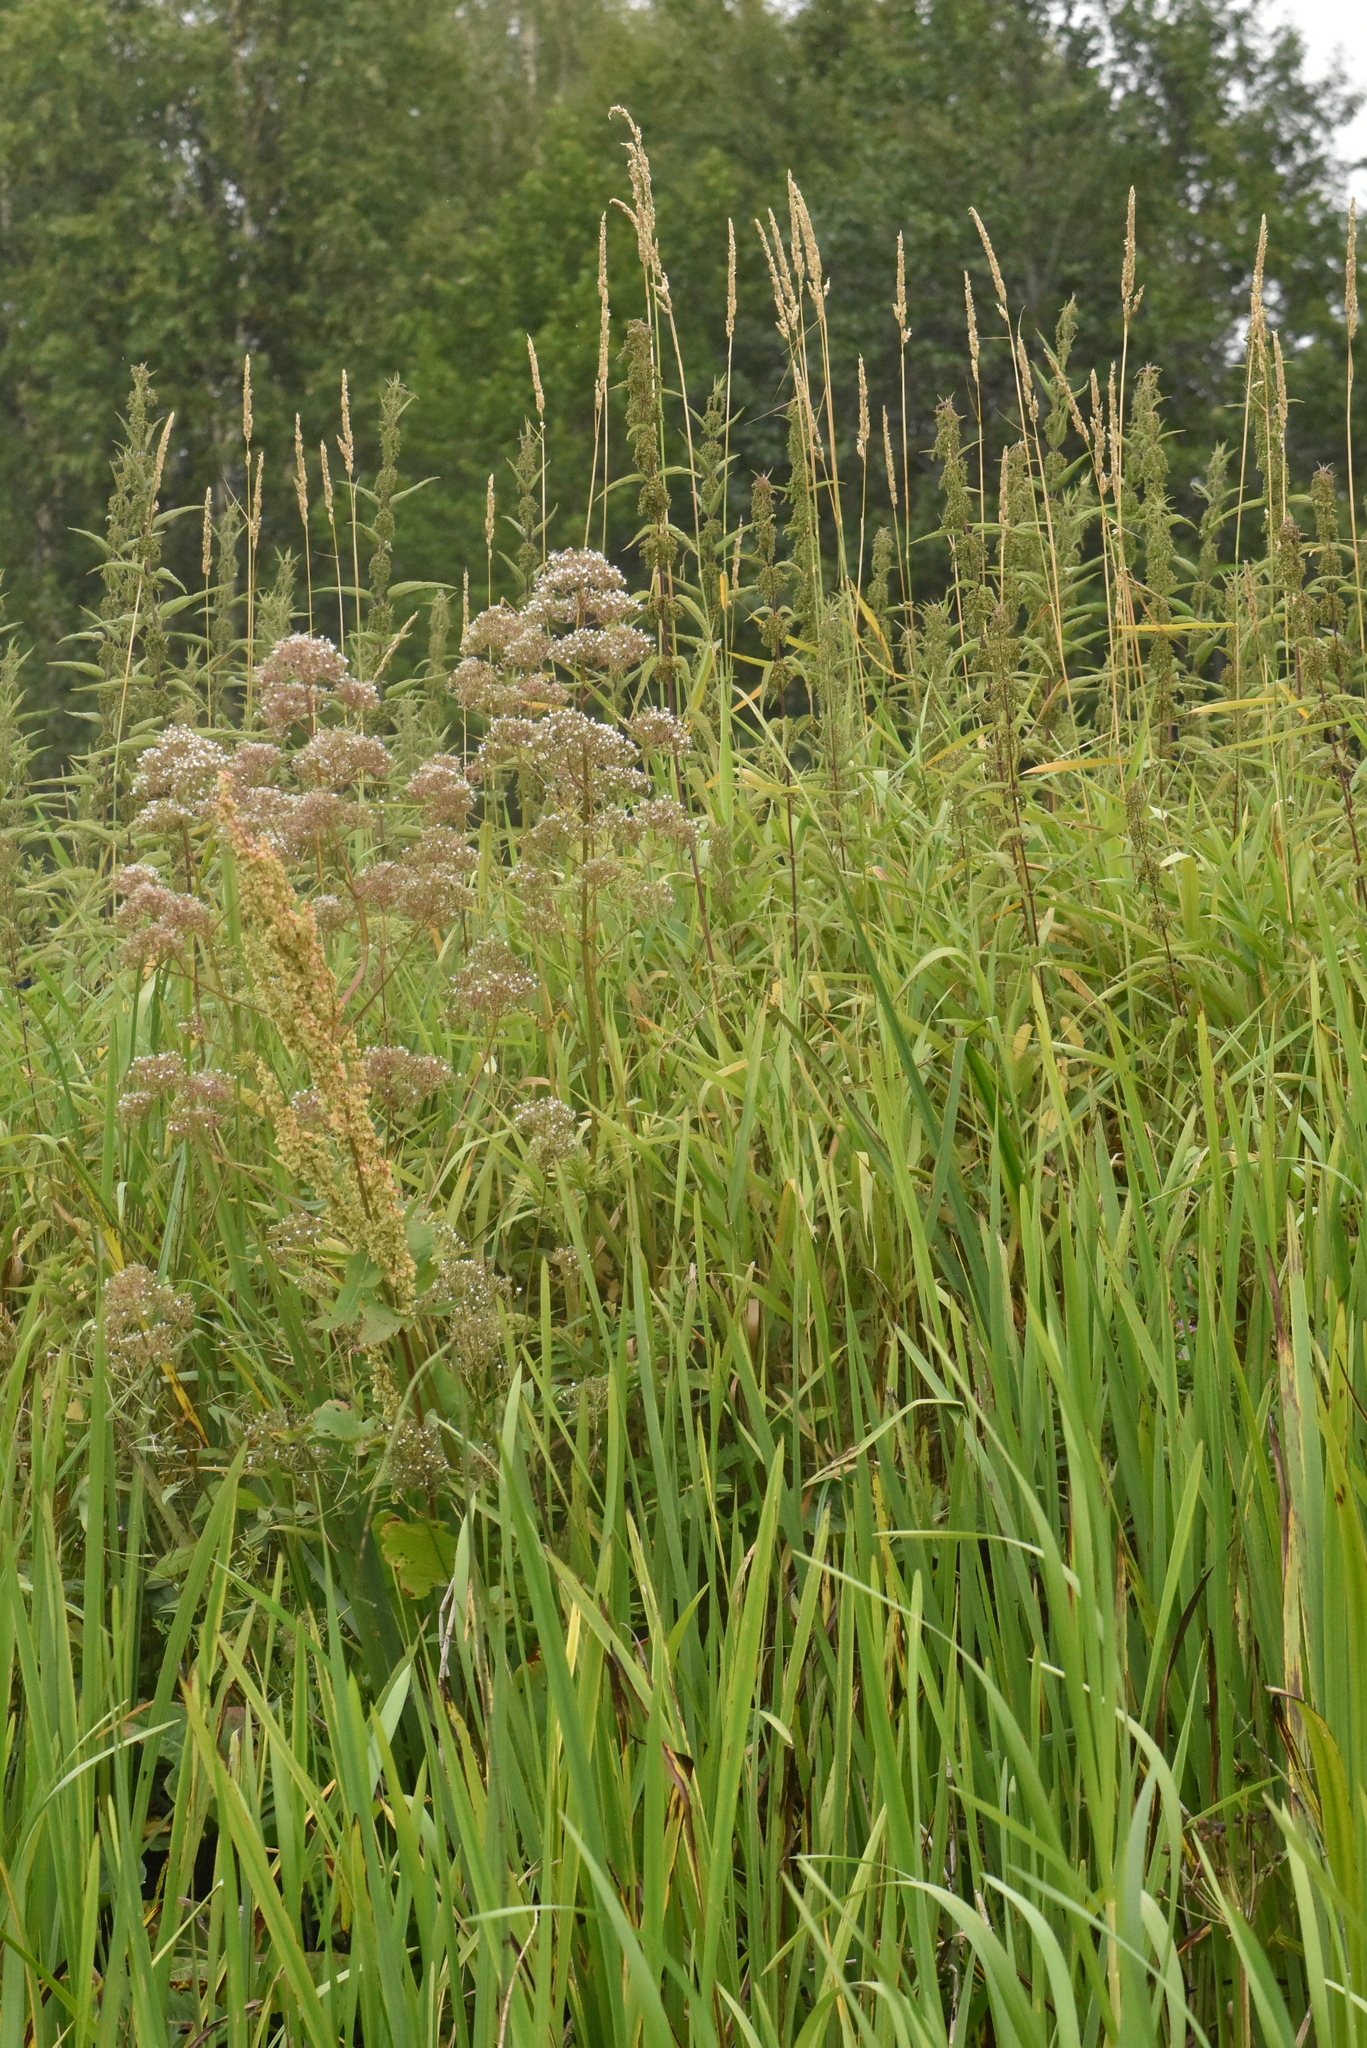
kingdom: Plantae
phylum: Tracheophyta
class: Magnoliopsida
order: Dipsacales
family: Caprifoliaceae
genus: Valeriana
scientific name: Valeriana officinalis
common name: Common valerian
